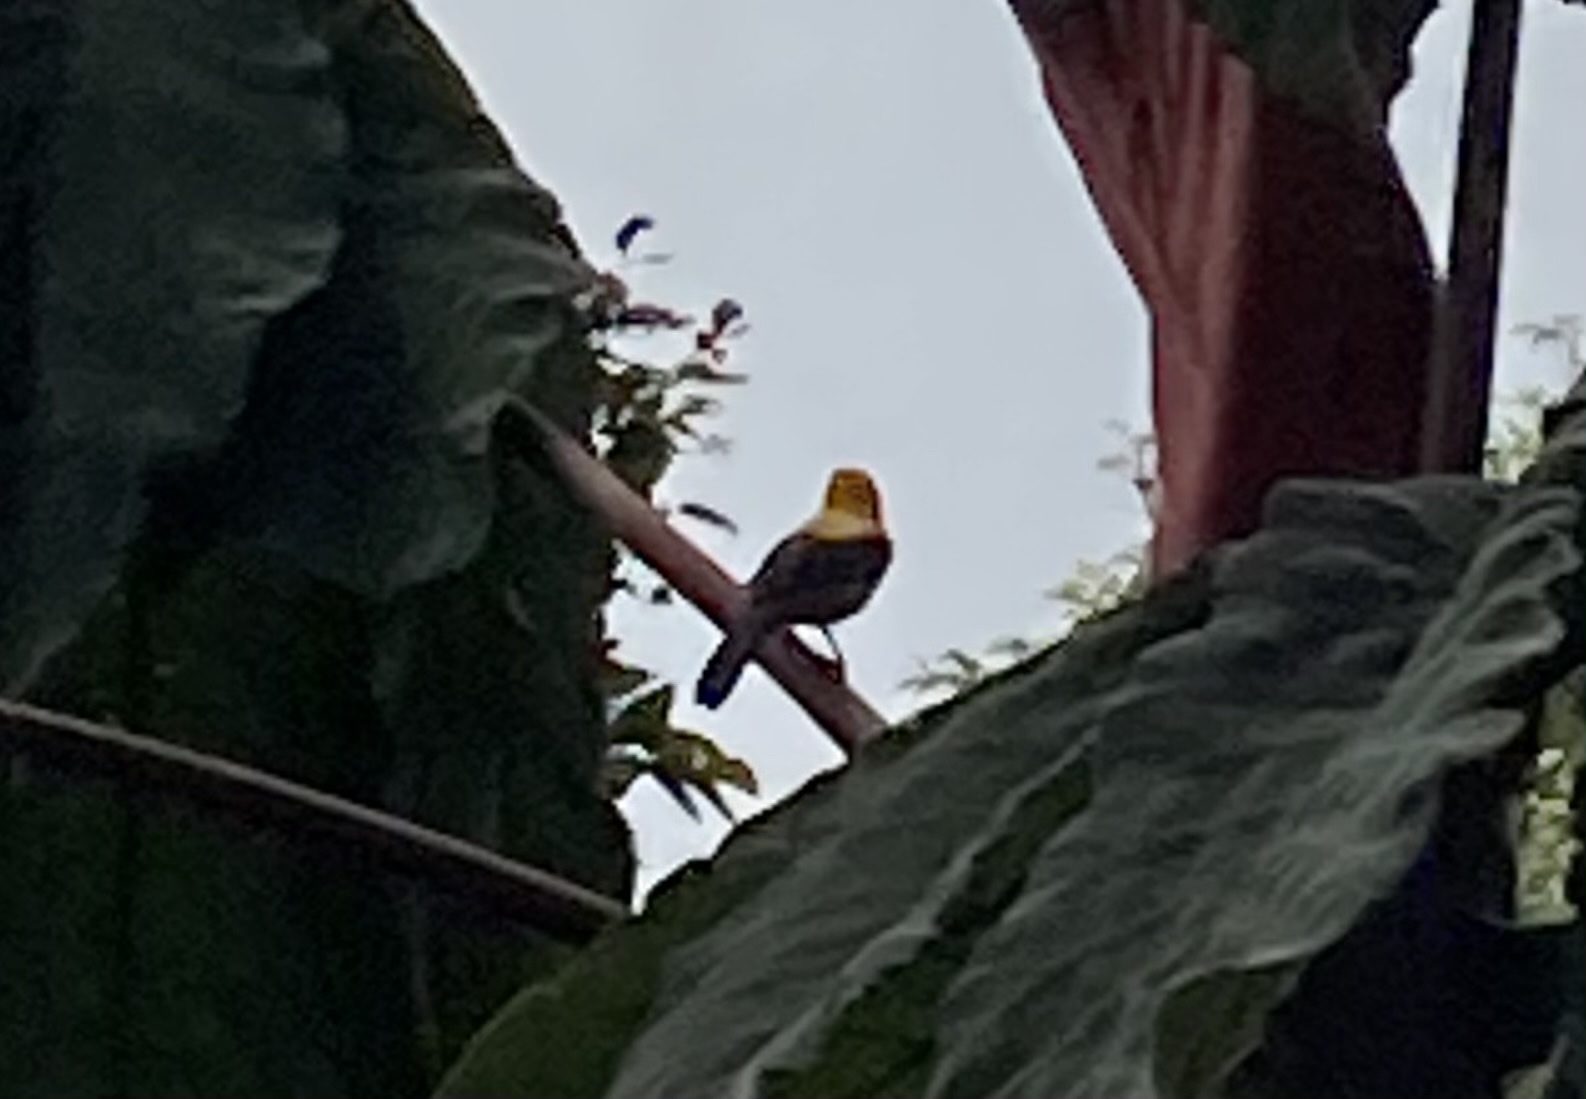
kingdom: Animalia
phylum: Chordata
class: Aves
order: Passeriformes
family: Icteridae
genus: Icterus
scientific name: Icterus chrysater
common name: Yellow-backed oriole
